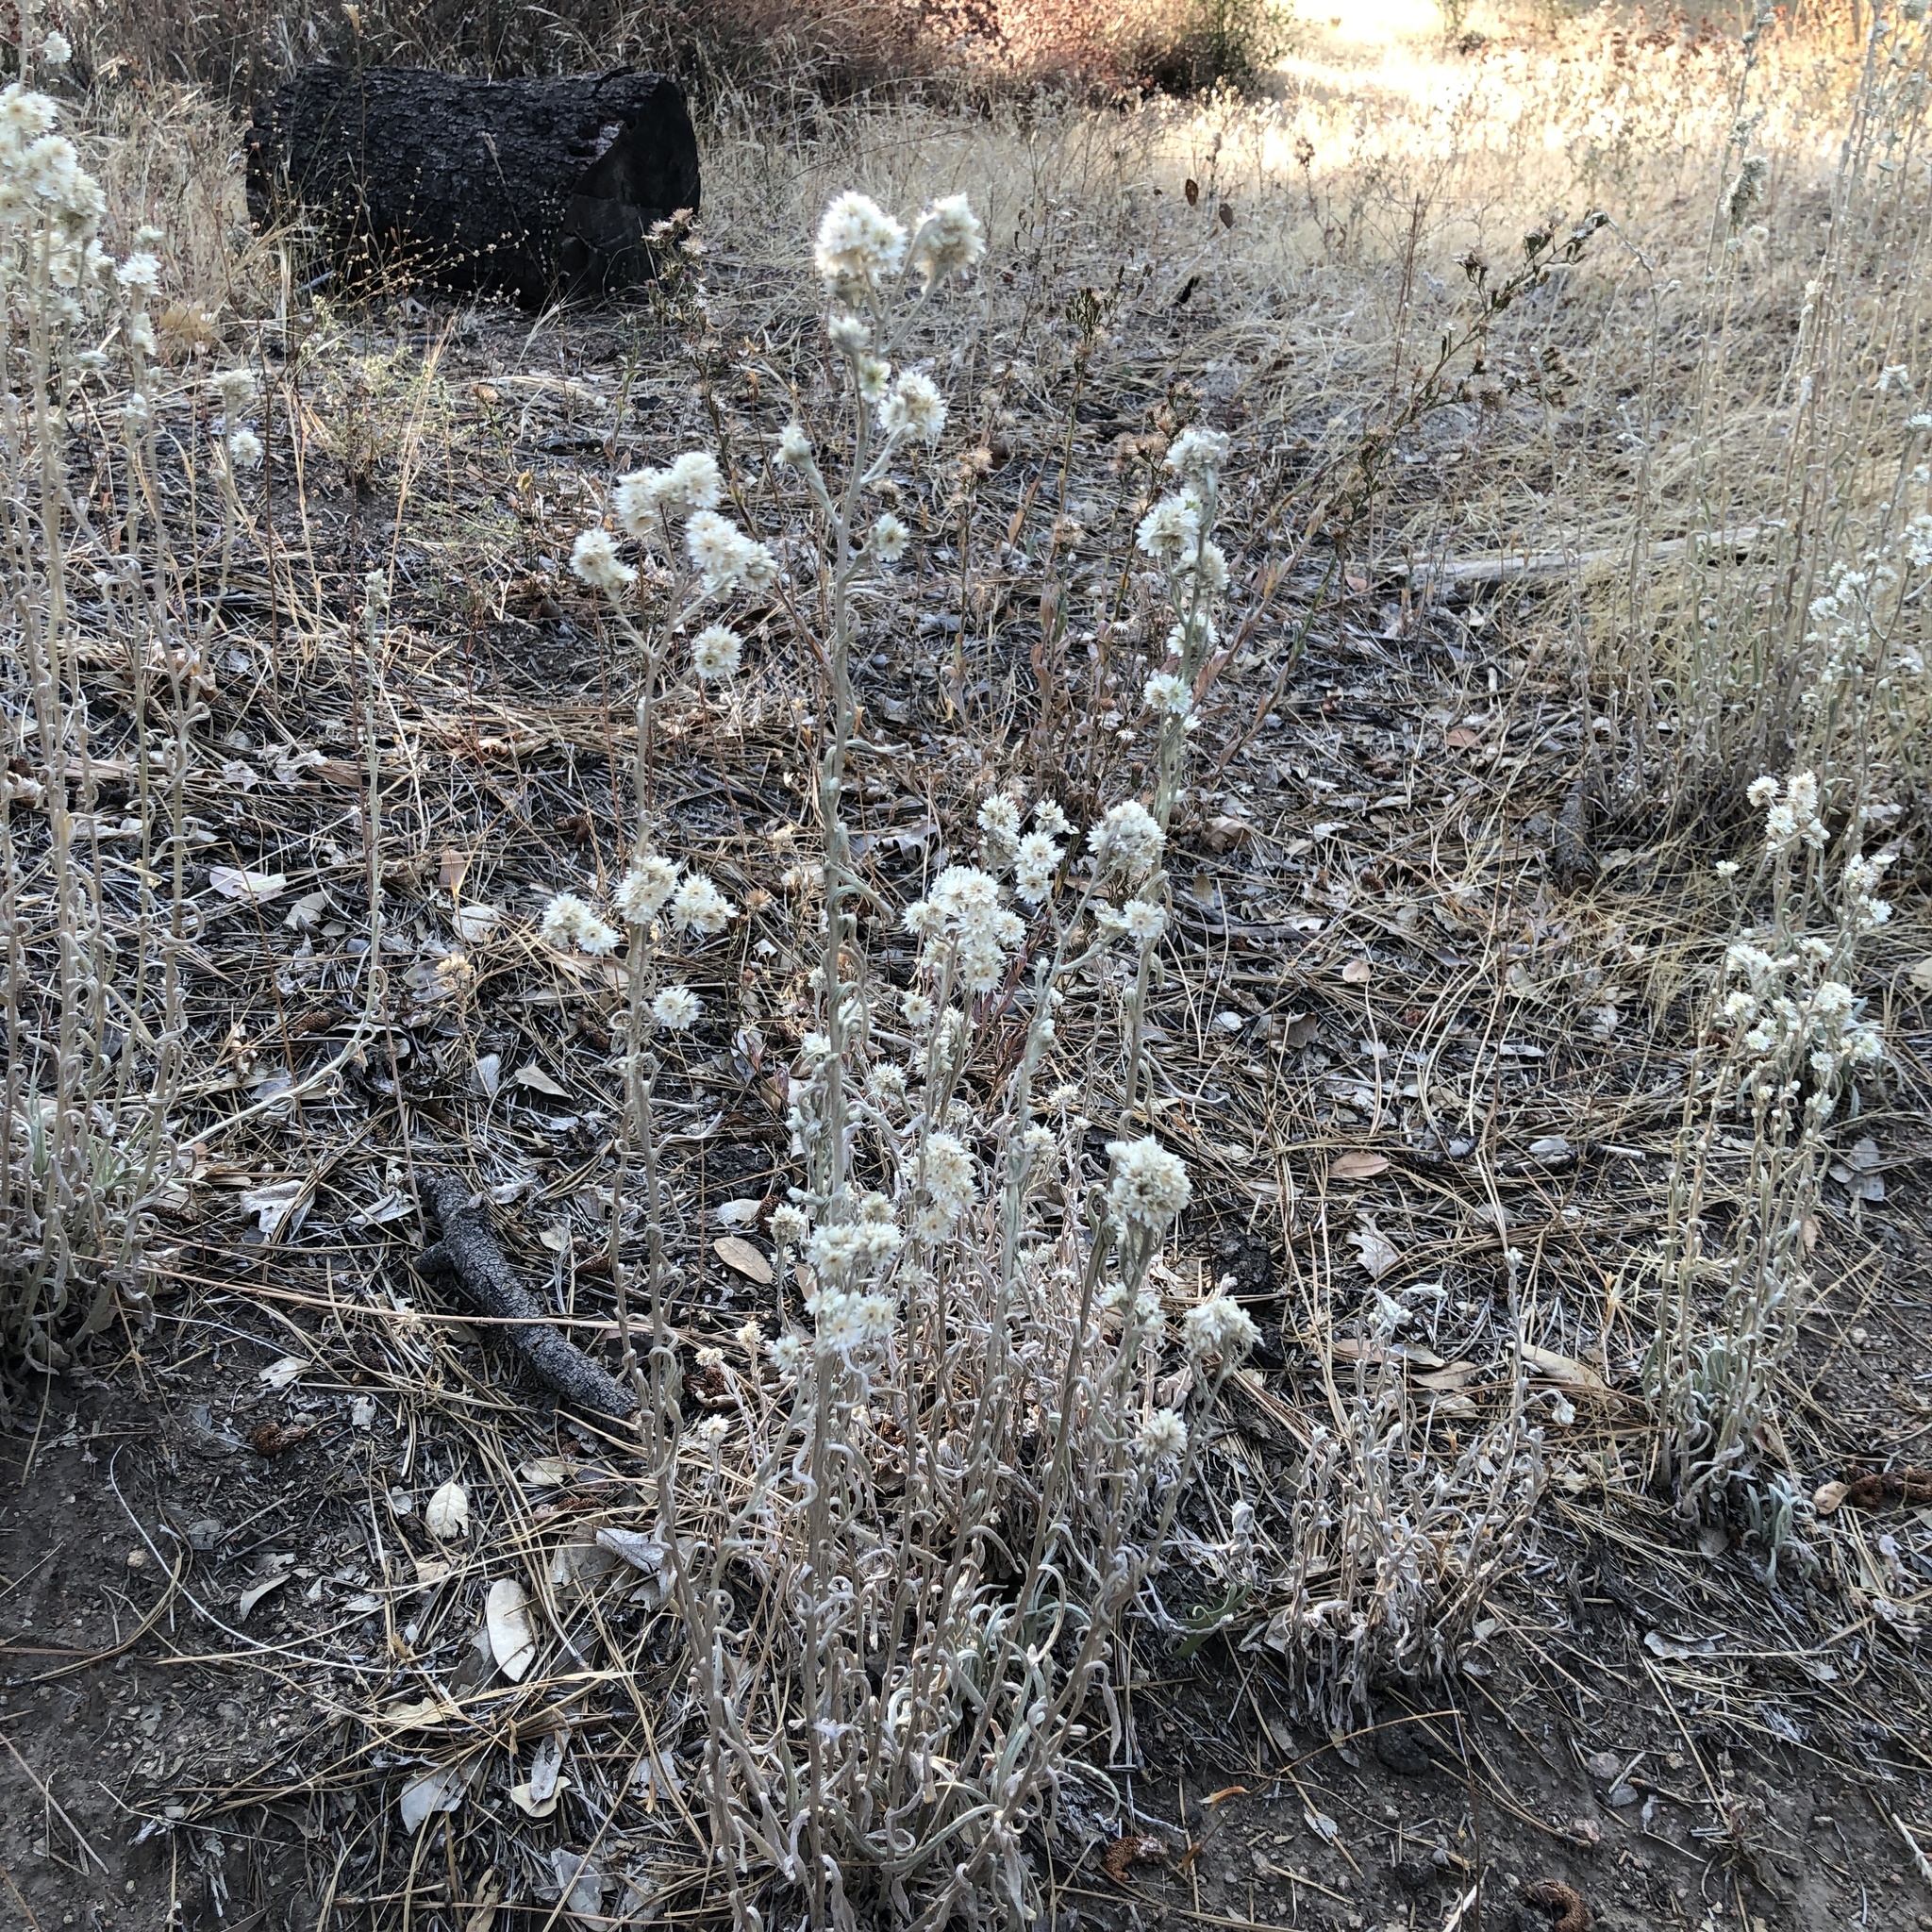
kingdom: Plantae
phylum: Tracheophyta
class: Magnoliopsida
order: Asterales
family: Asteraceae
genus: Pseudognaphalium
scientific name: Pseudognaphalium beneolens
